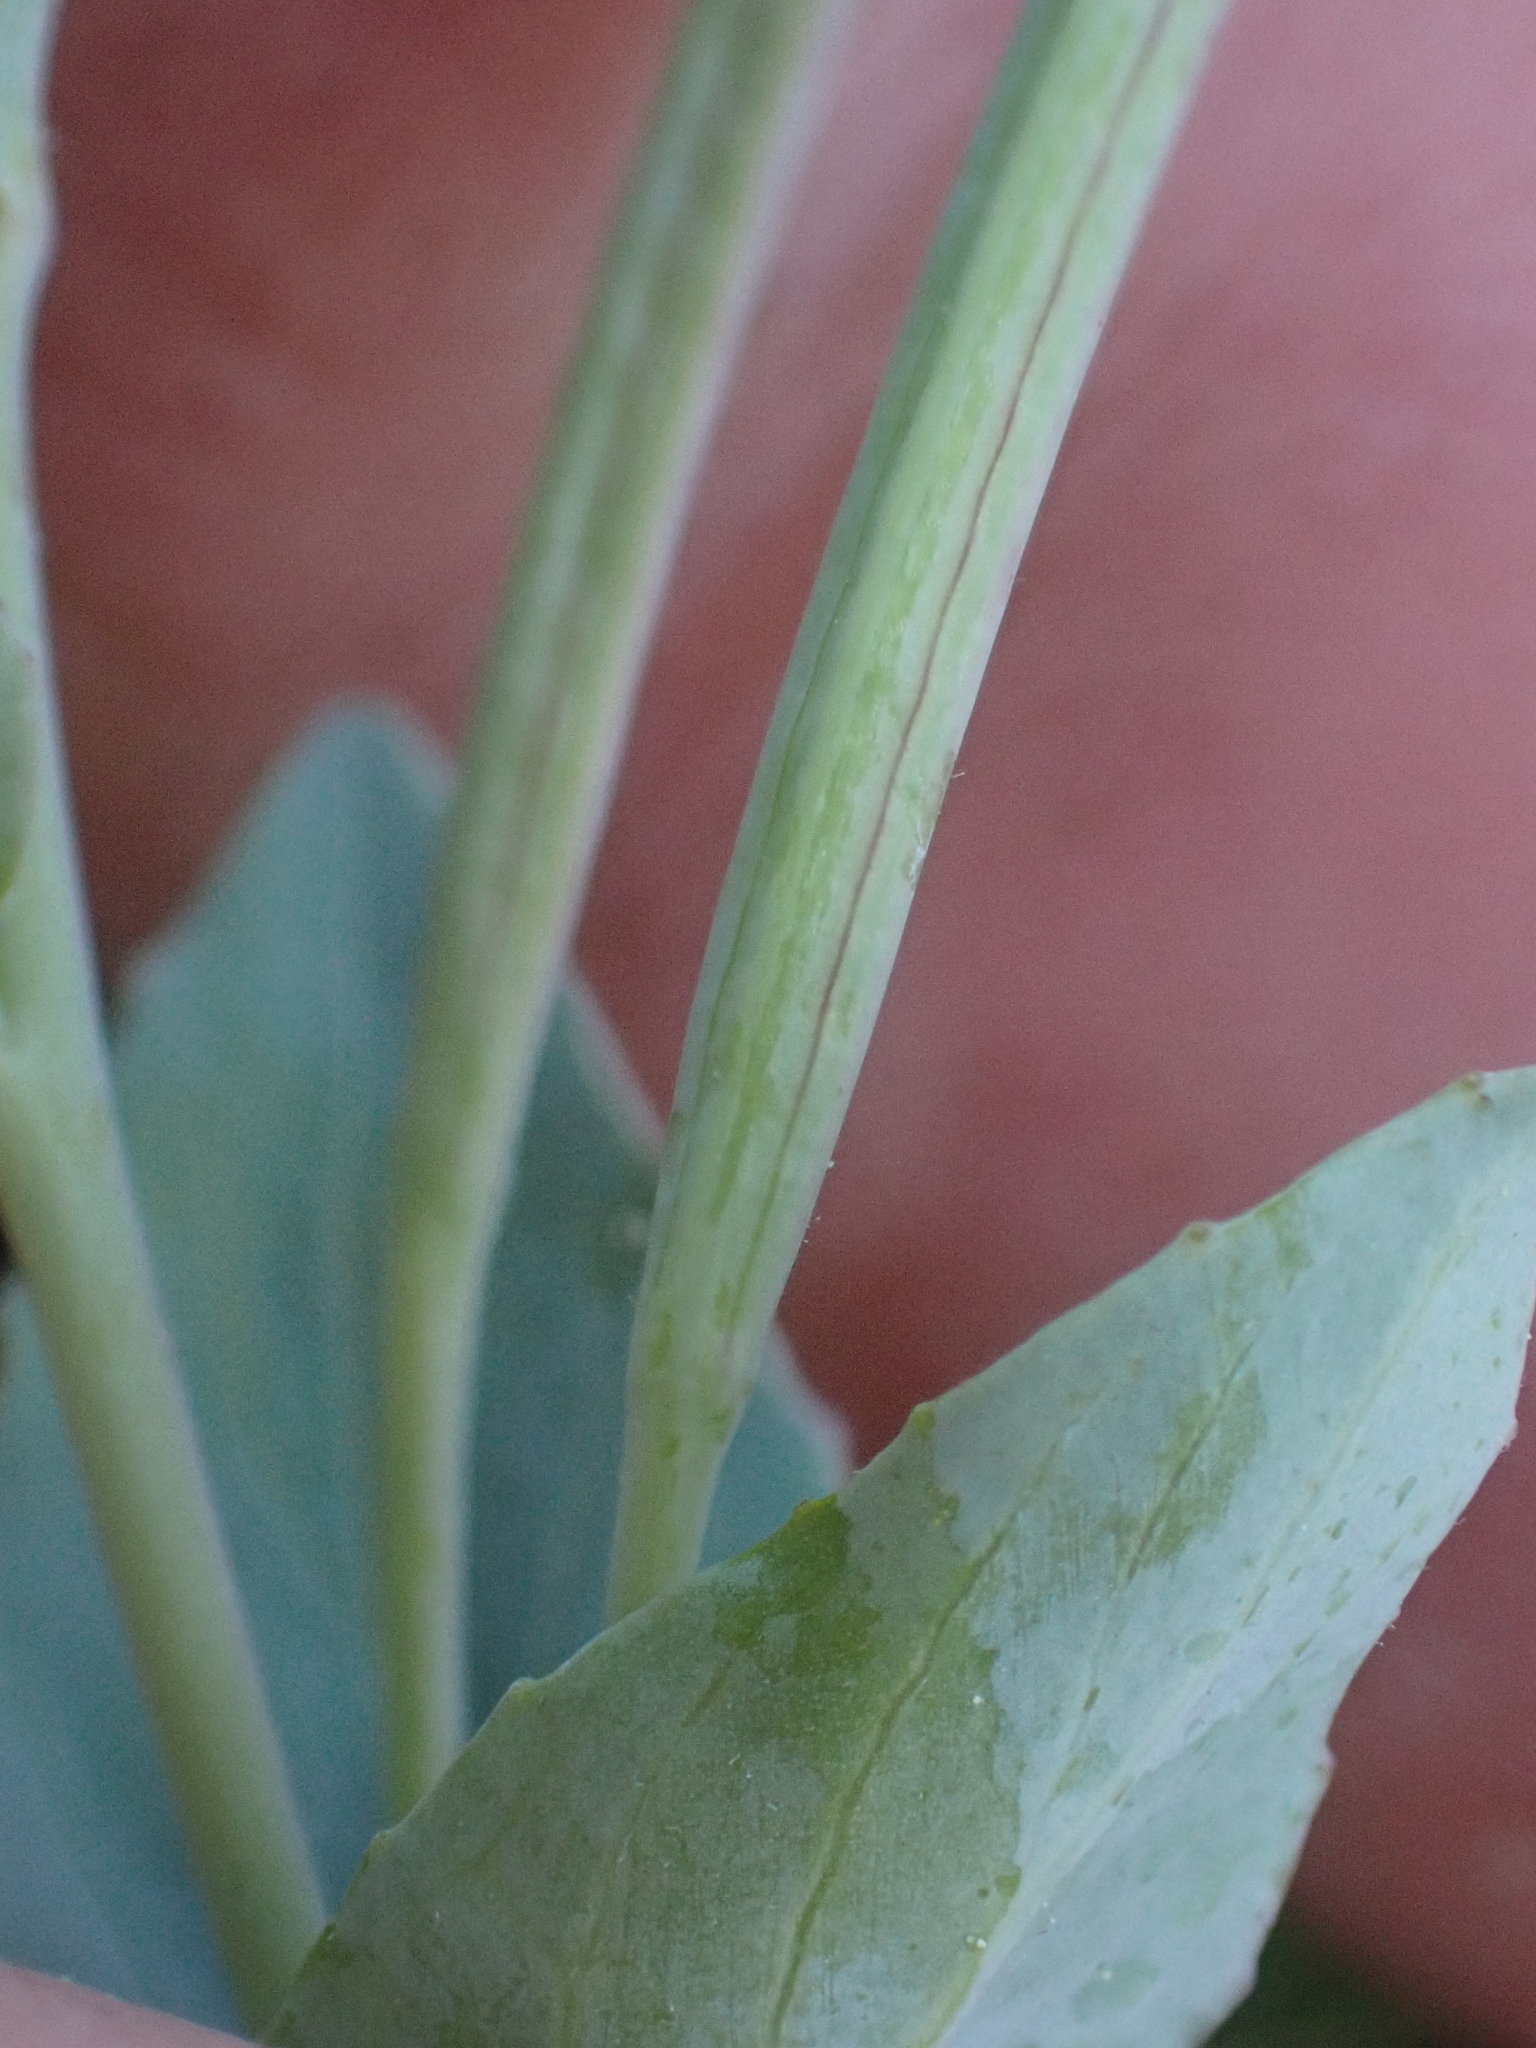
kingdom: Plantae
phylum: Tracheophyta
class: Magnoliopsida
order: Myrtales
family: Onagraceae
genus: Epilobium
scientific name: Epilobium glaberrimum
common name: Glaucous willowherb
